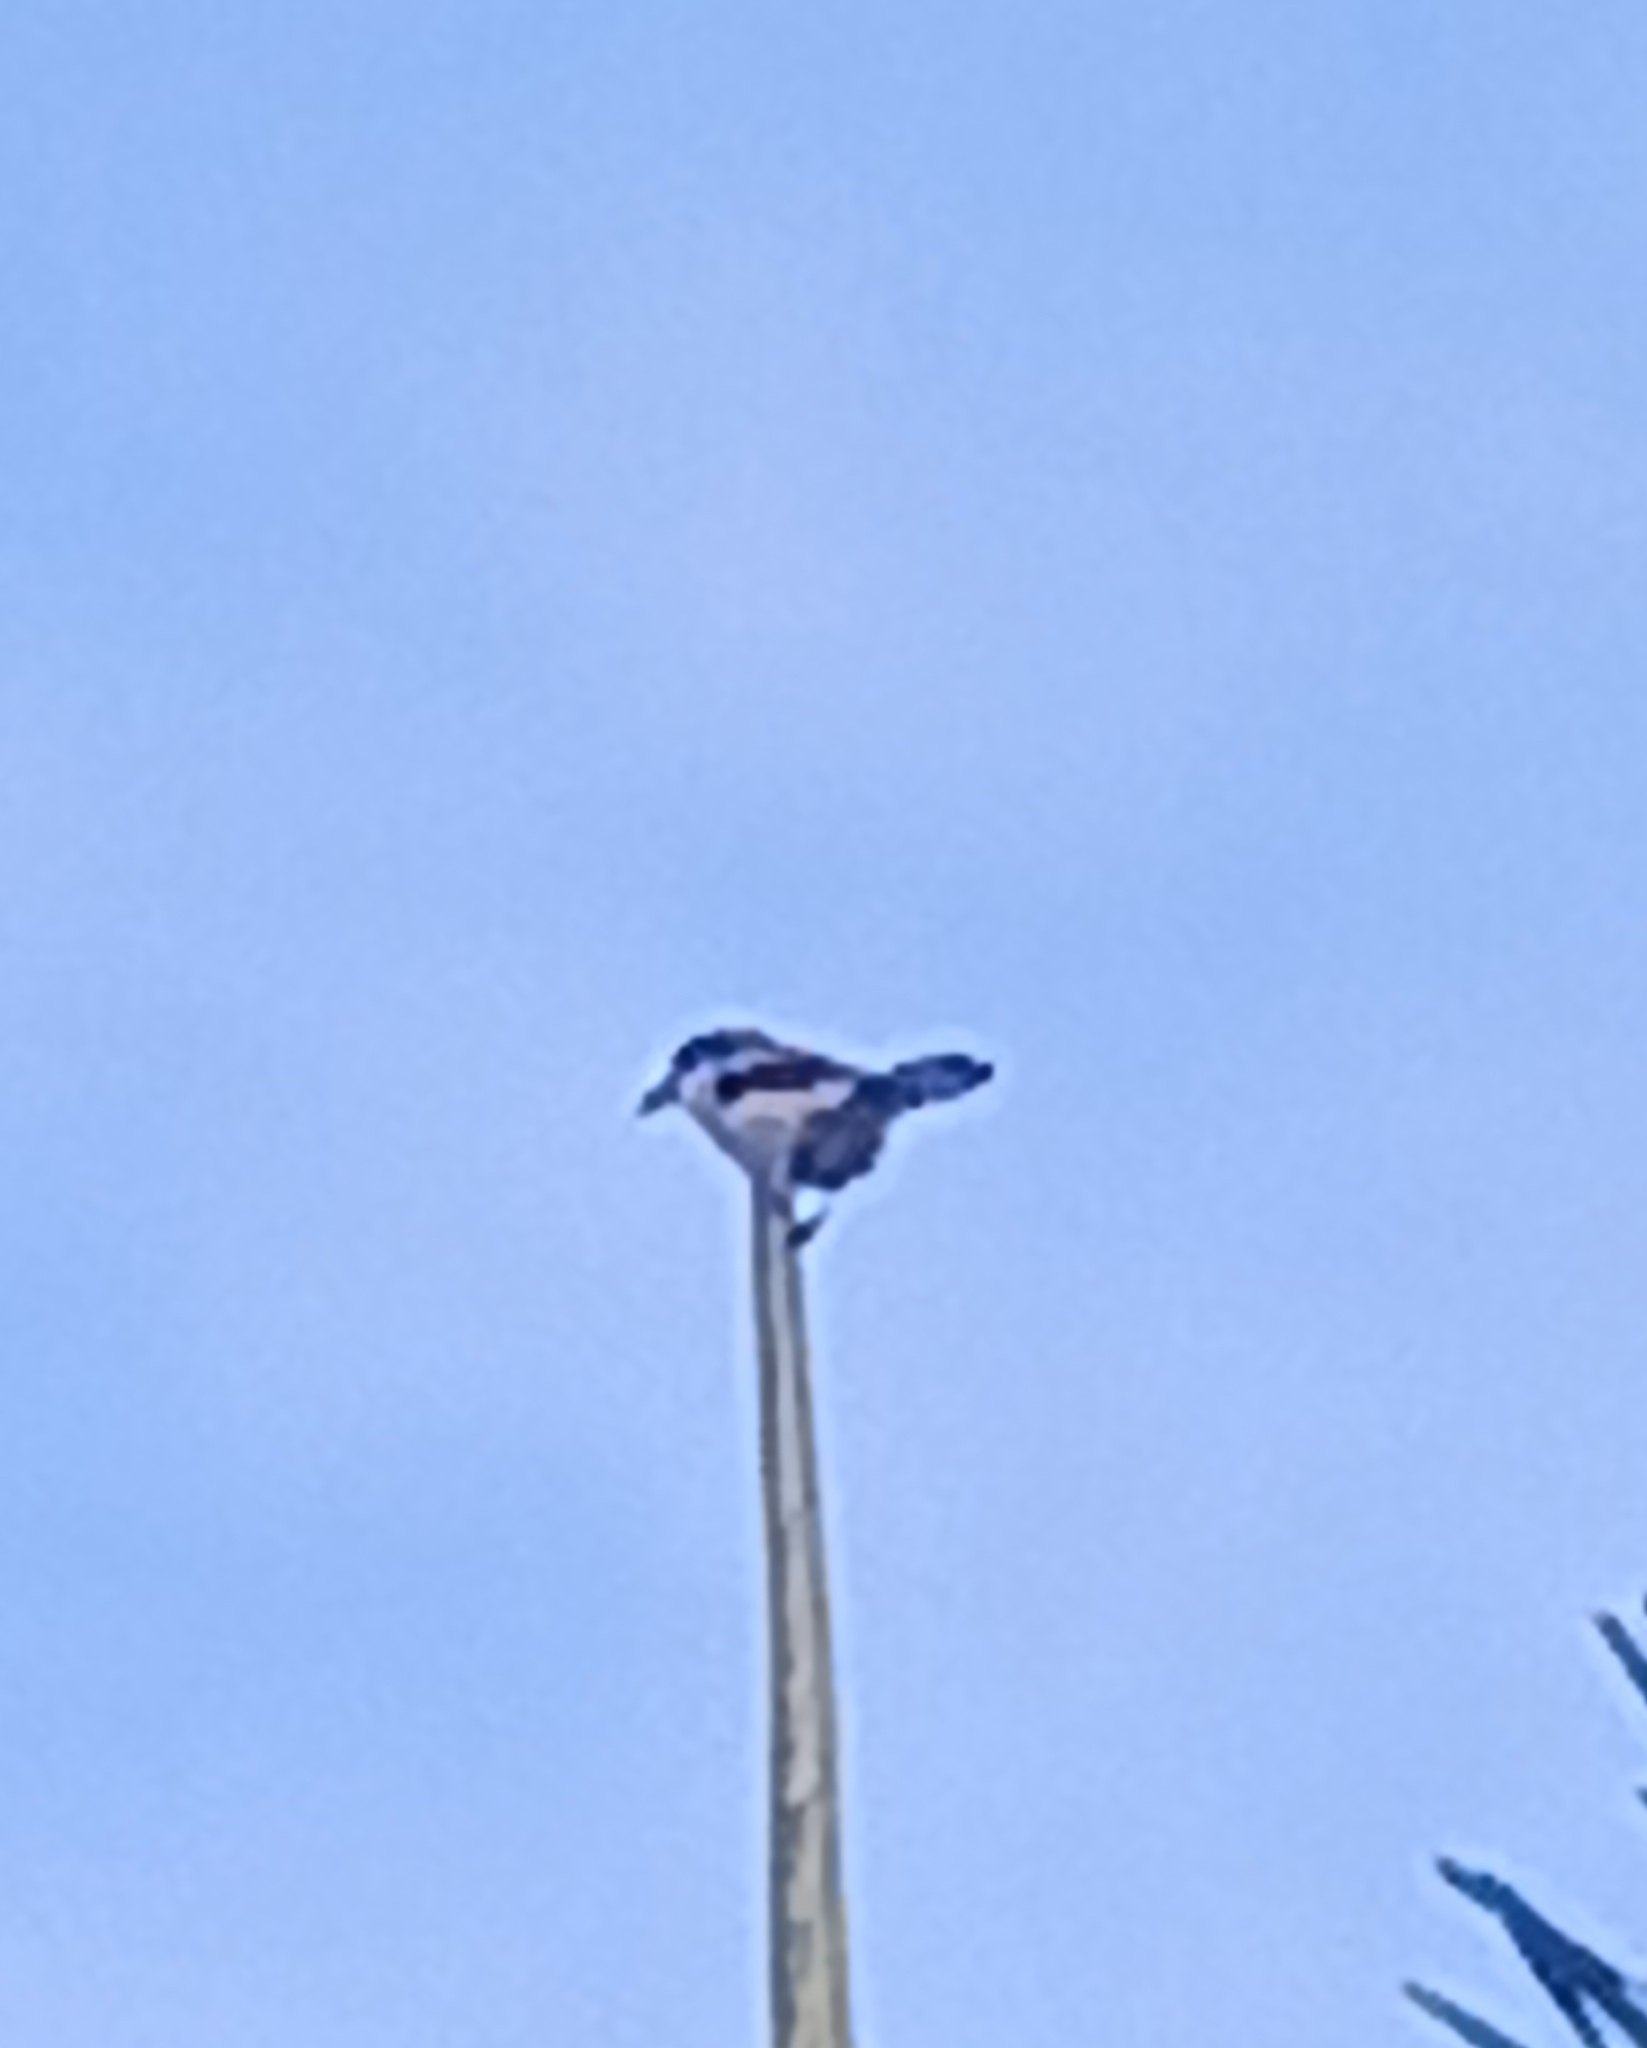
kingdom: Animalia
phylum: Chordata
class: Aves
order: Passeriformes
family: Laniidae
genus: Lanius
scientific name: Lanius ludovicianus
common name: Loggerhead shrike
